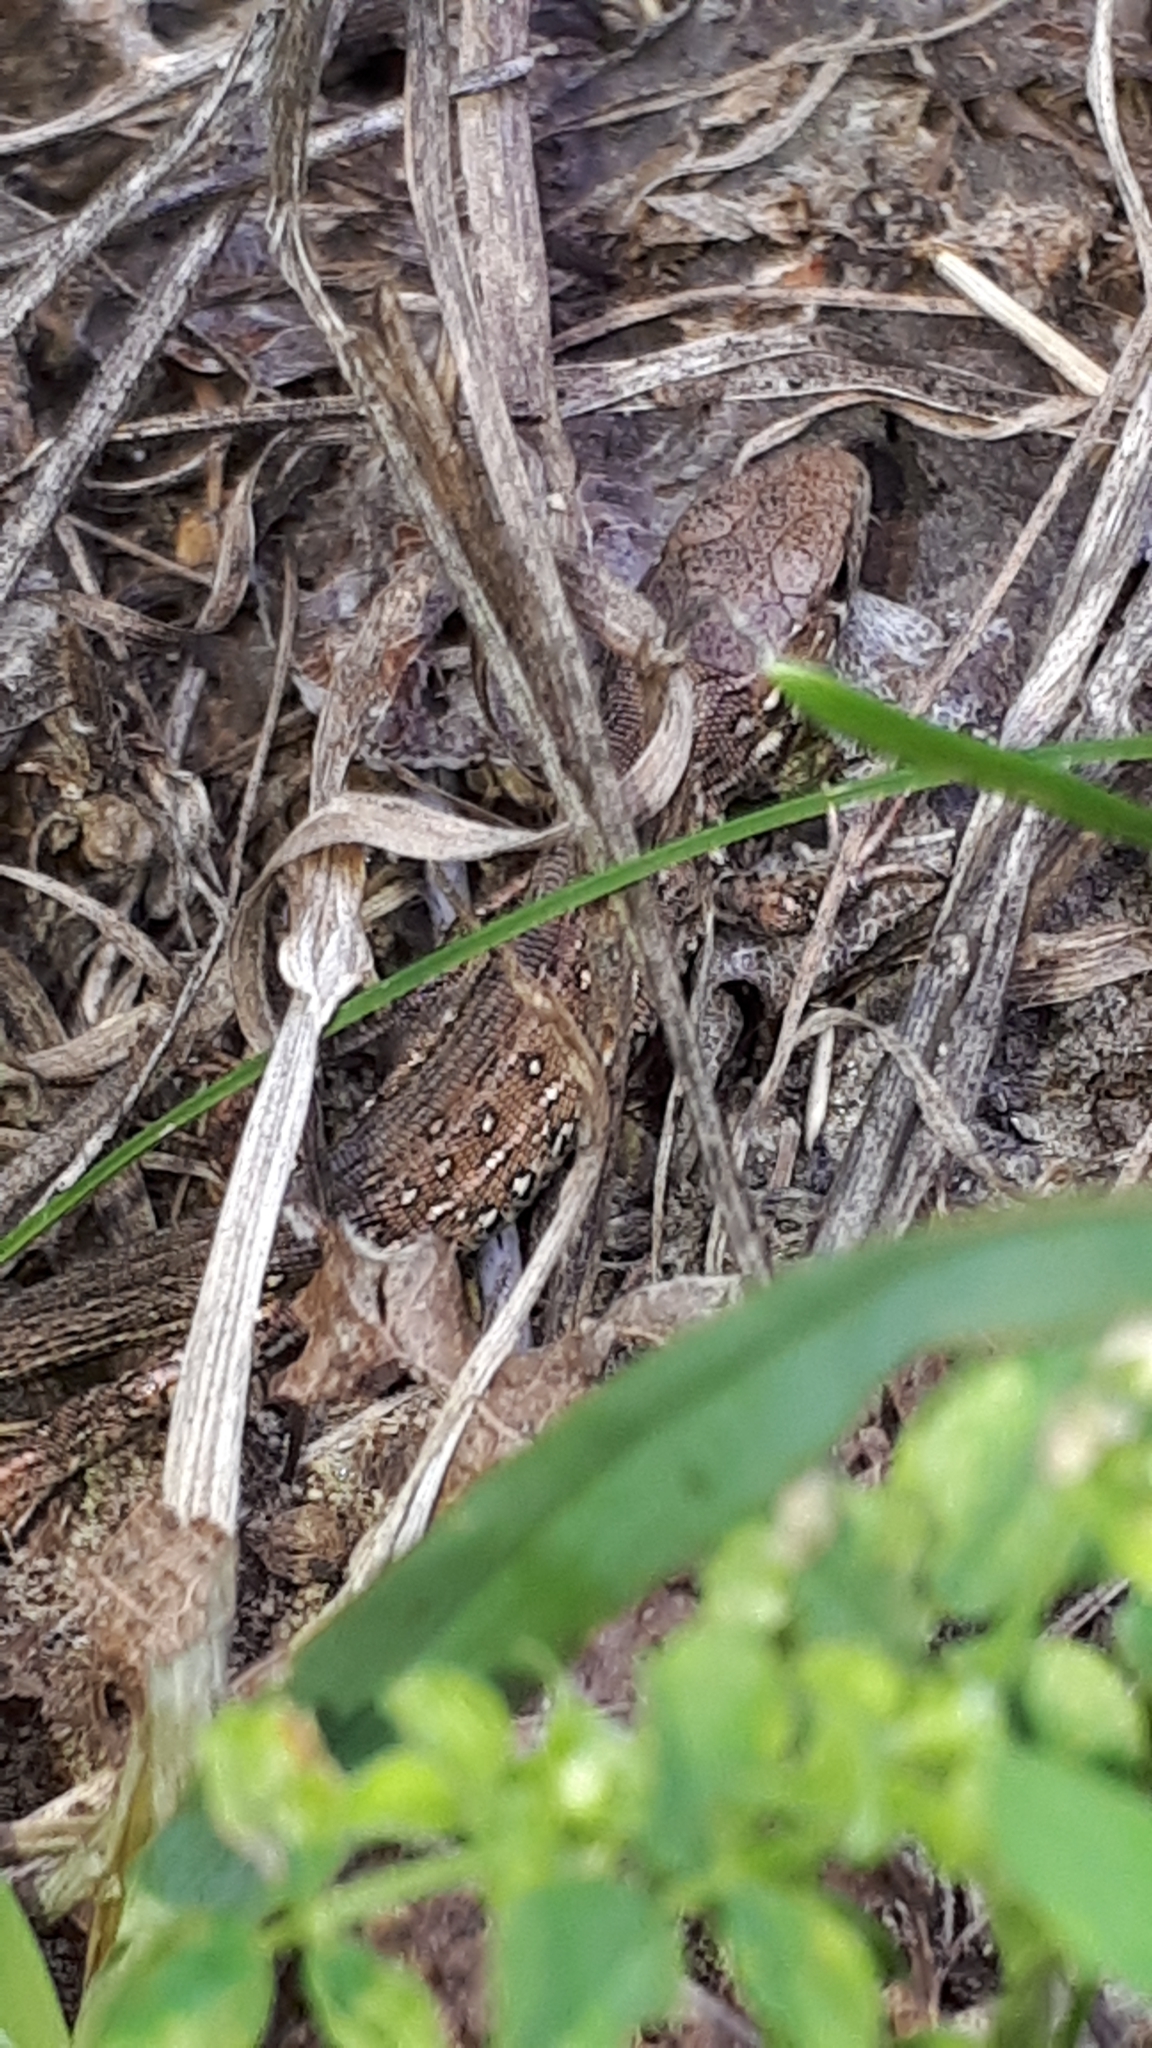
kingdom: Animalia
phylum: Chordata
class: Squamata
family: Lacertidae
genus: Lacerta
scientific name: Lacerta agilis
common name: Sand lizard
